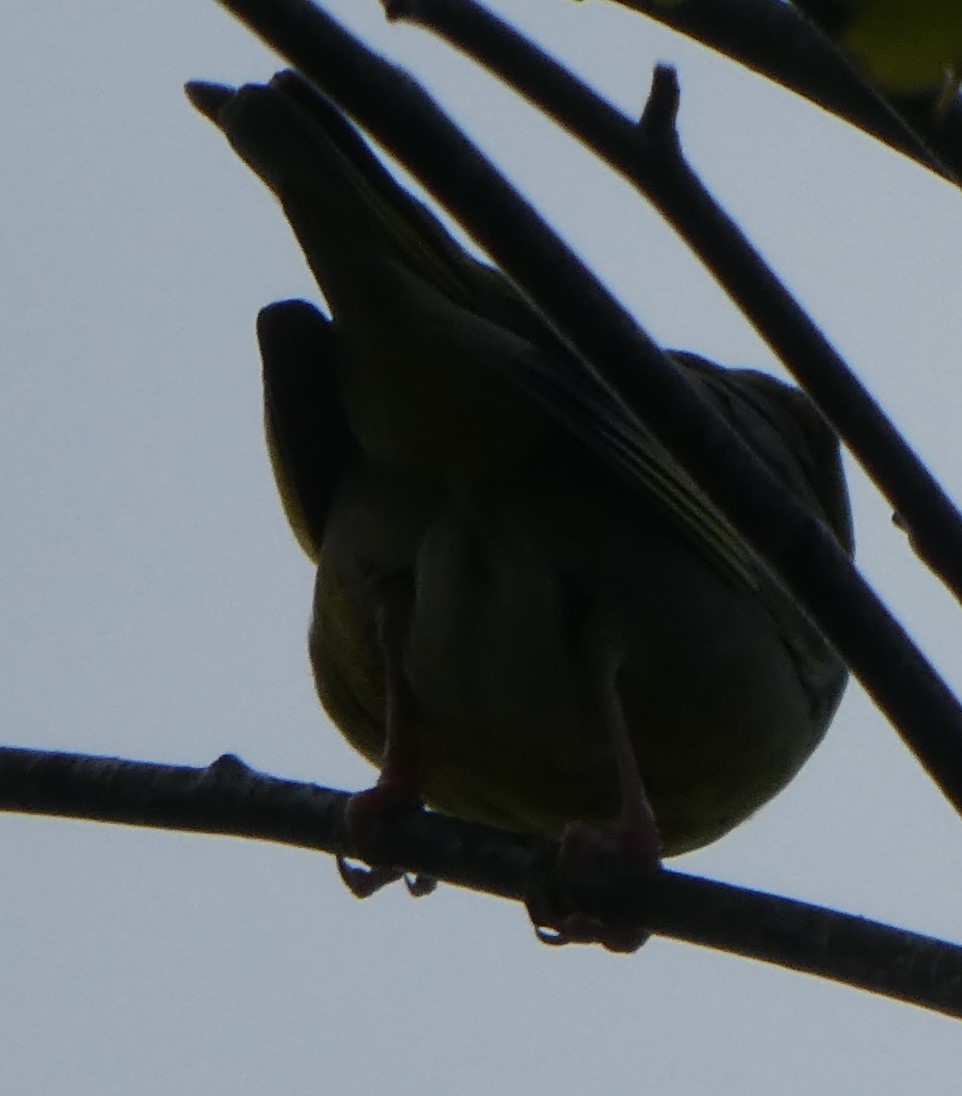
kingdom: Plantae
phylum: Tracheophyta
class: Liliopsida
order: Poales
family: Poaceae
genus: Chloris
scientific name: Chloris chloris
